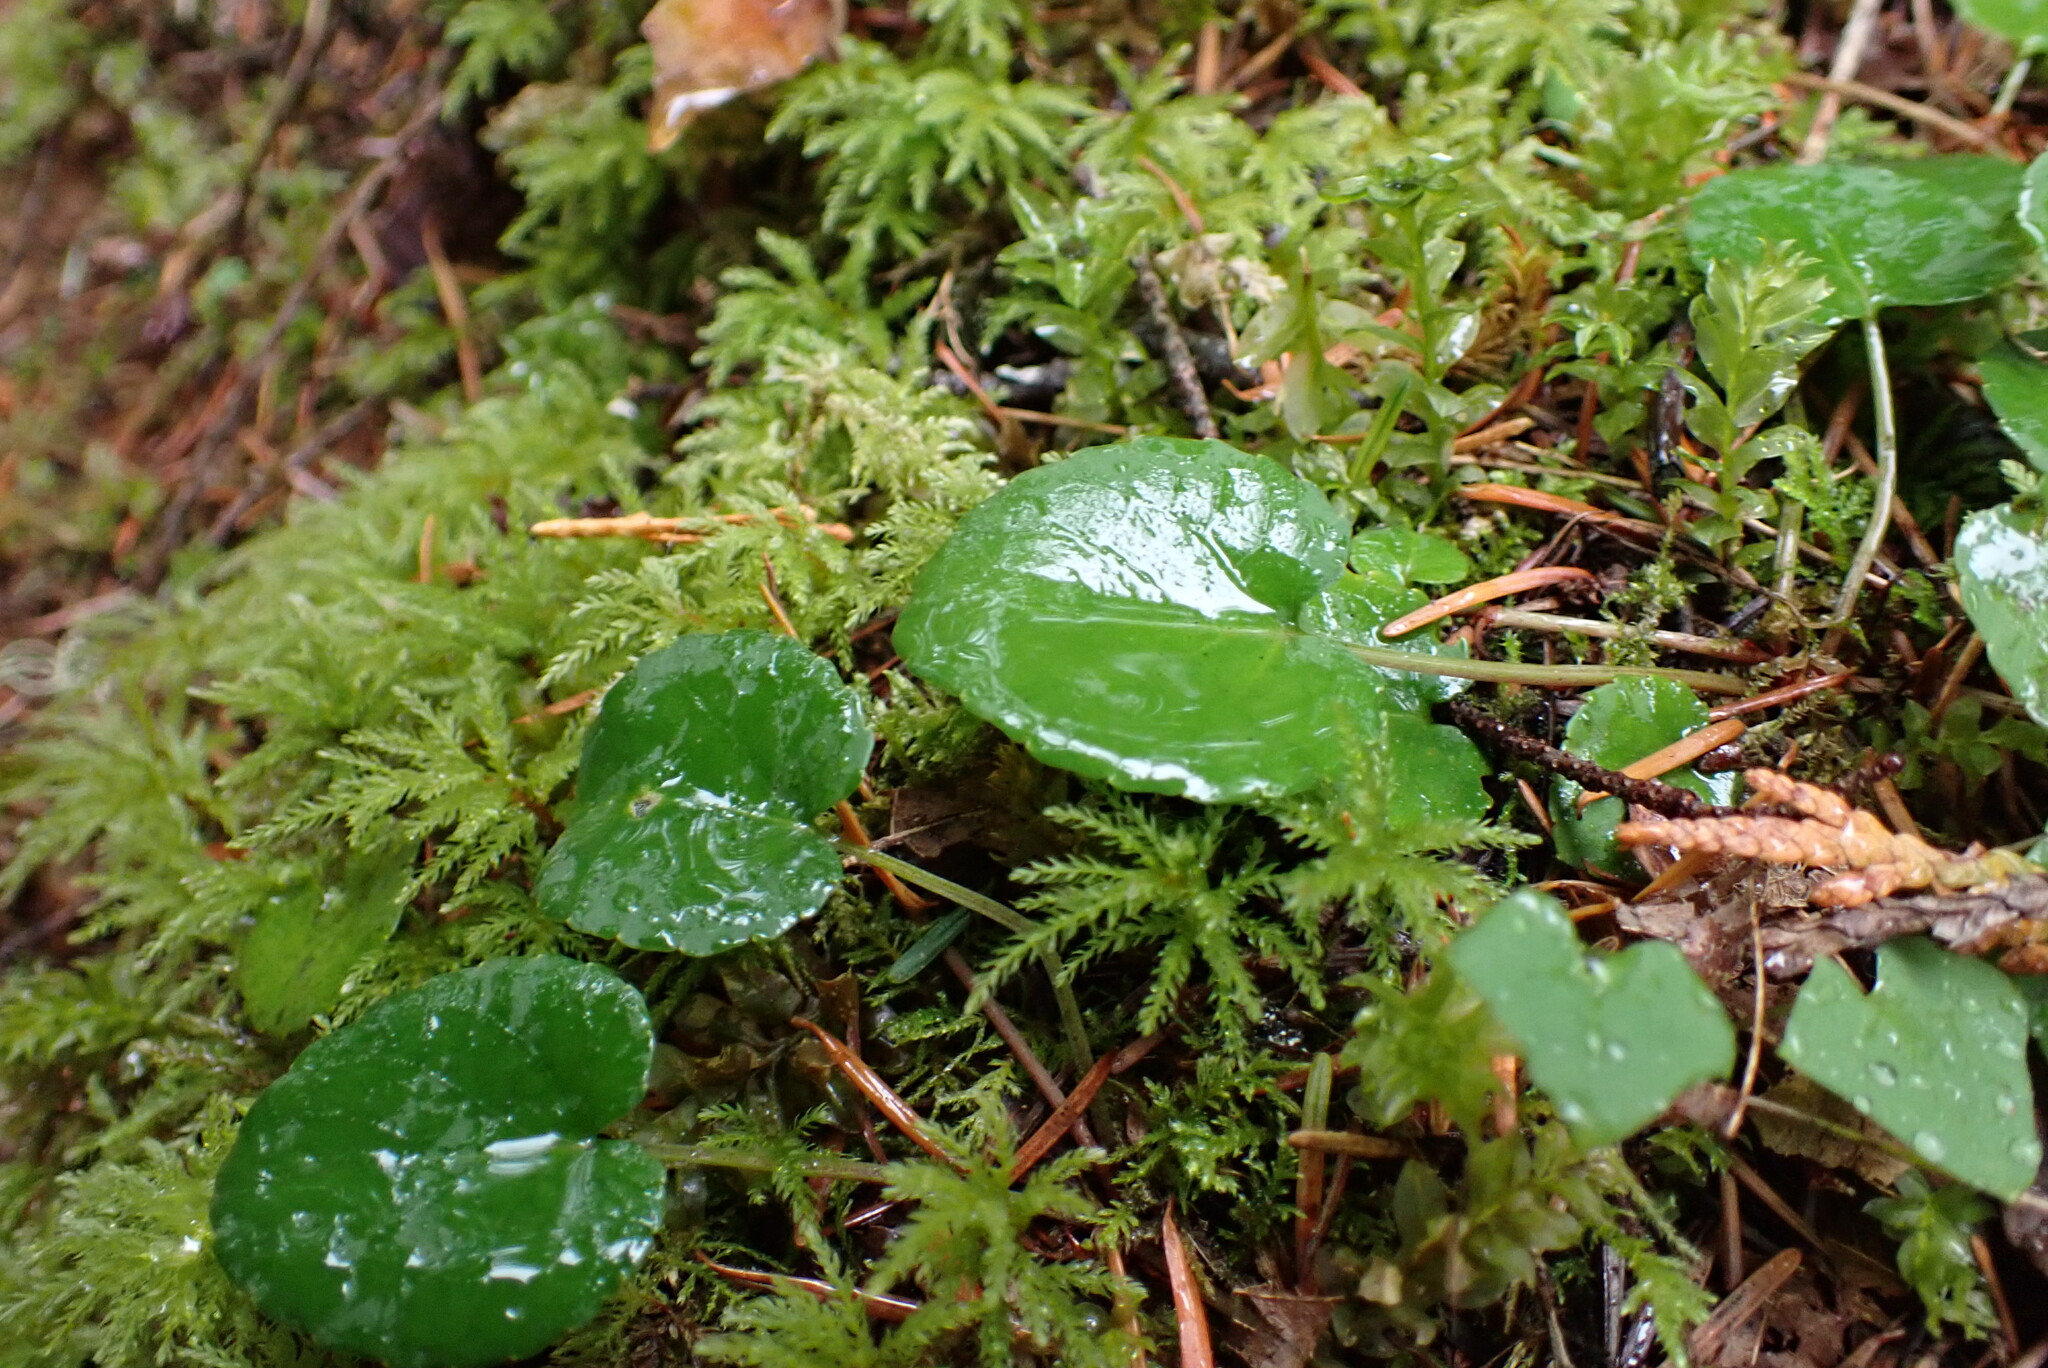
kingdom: Plantae
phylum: Tracheophyta
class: Magnoliopsida
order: Malpighiales
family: Violaceae
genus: Viola
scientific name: Viola sempervirens
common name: Evergreen violet
